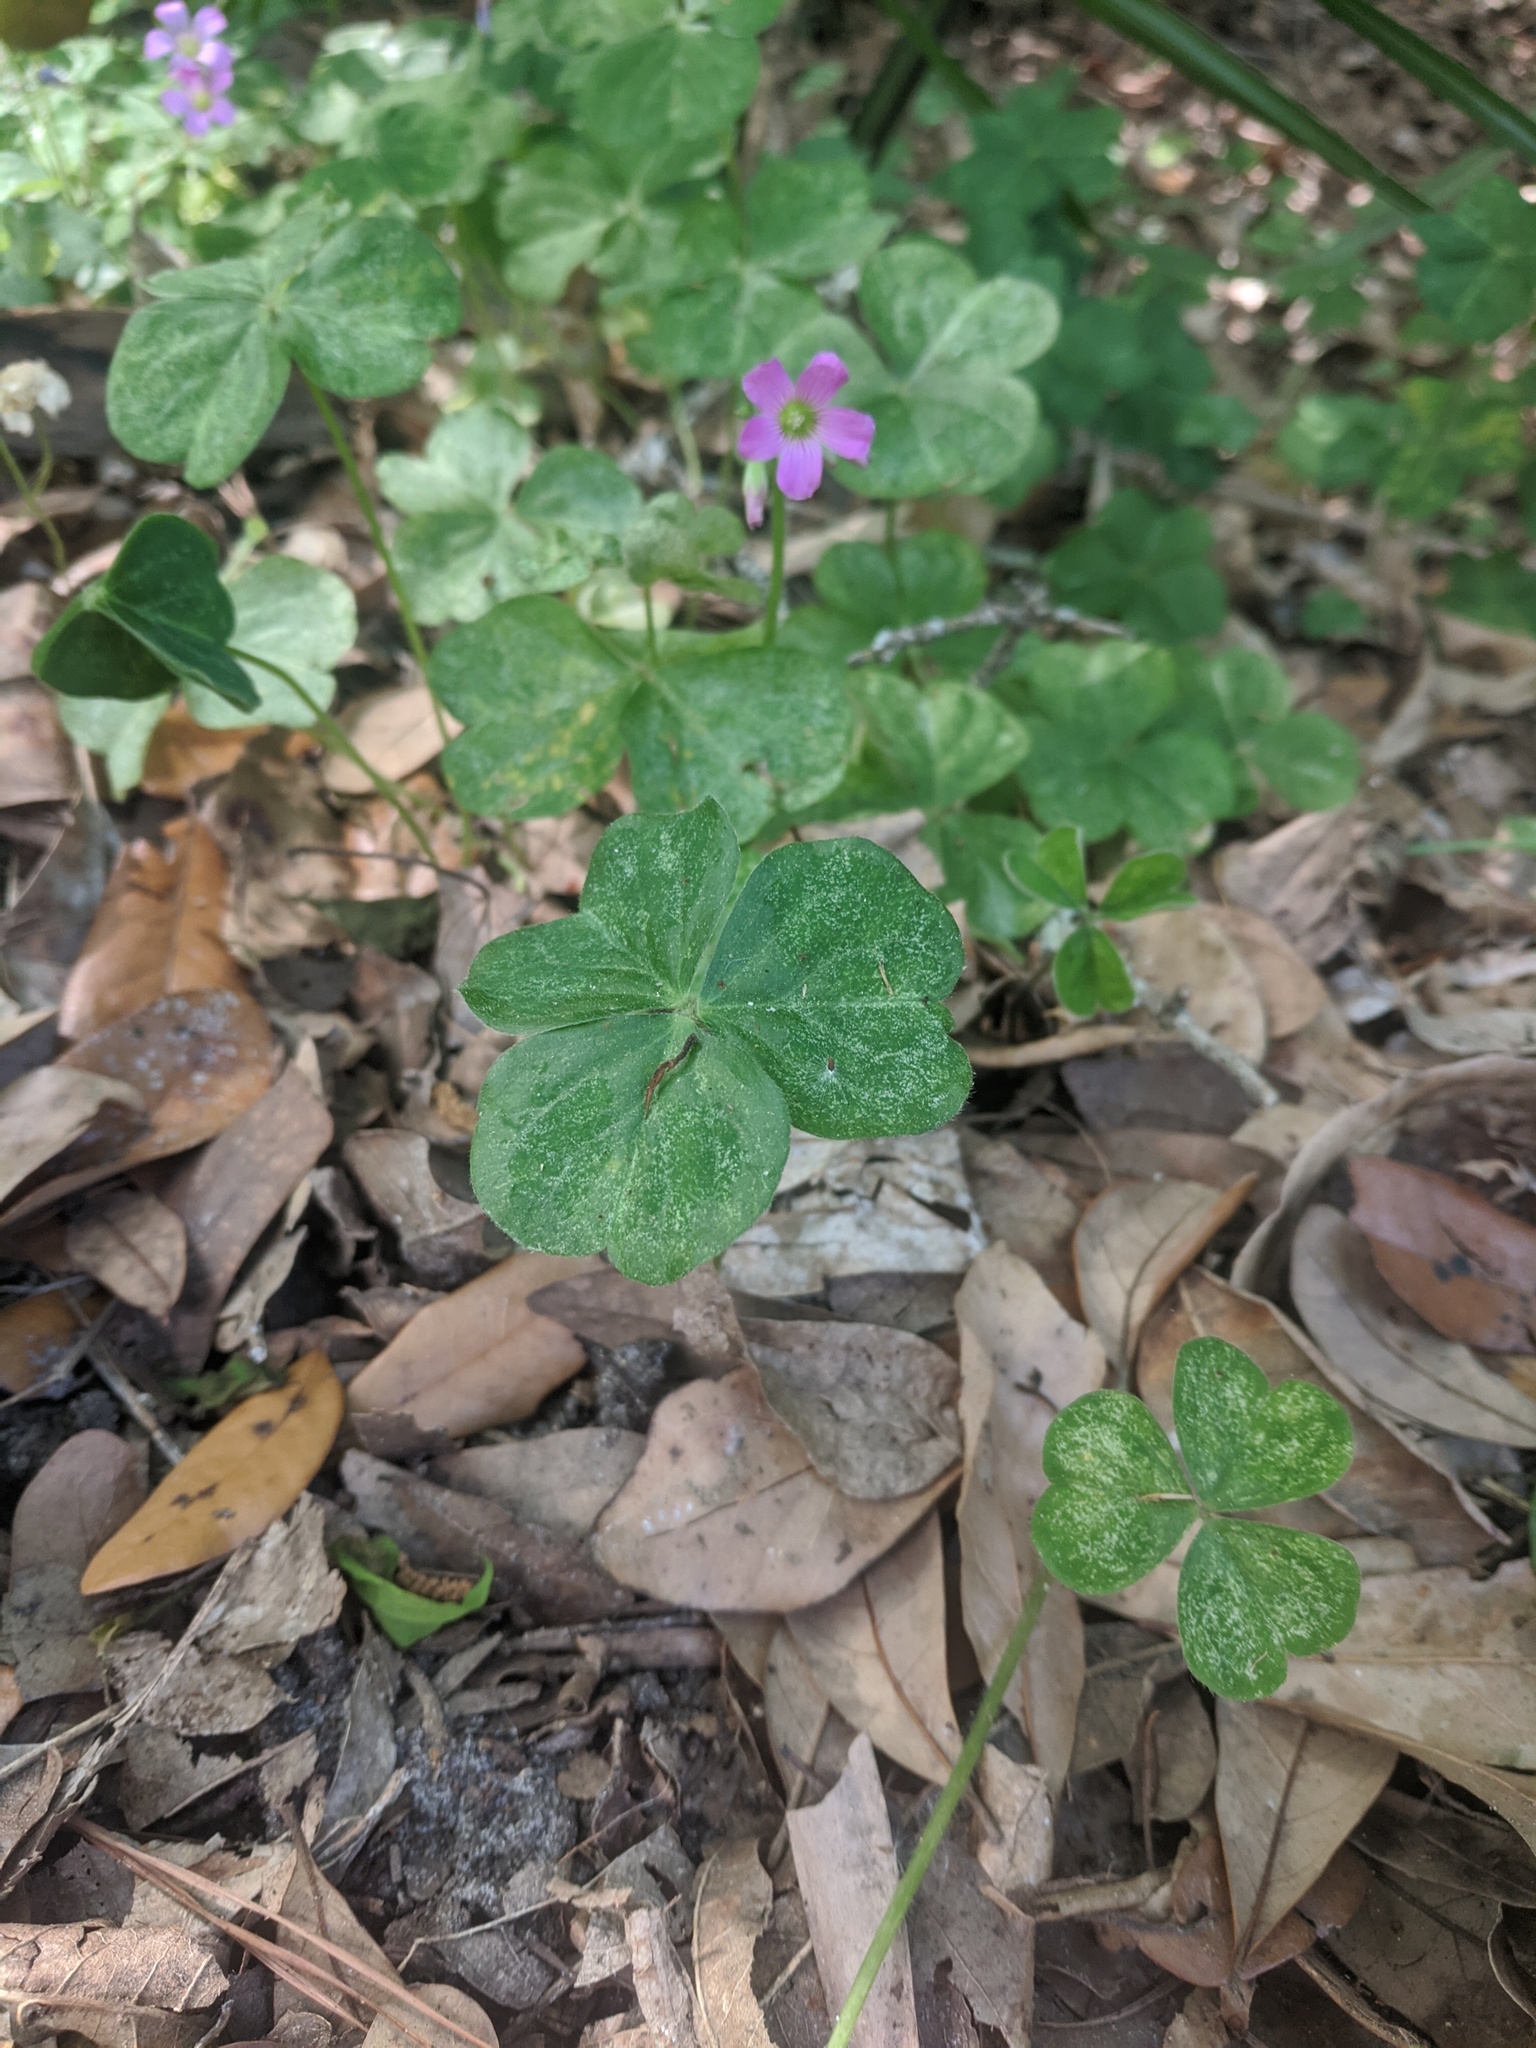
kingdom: Plantae
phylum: Tracheophyta
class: Magnoliopsida
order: Oxalidales
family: Oxalidaceae
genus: Oxalis
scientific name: Oxalis debilis
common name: Large-flowered pink-sorrel
